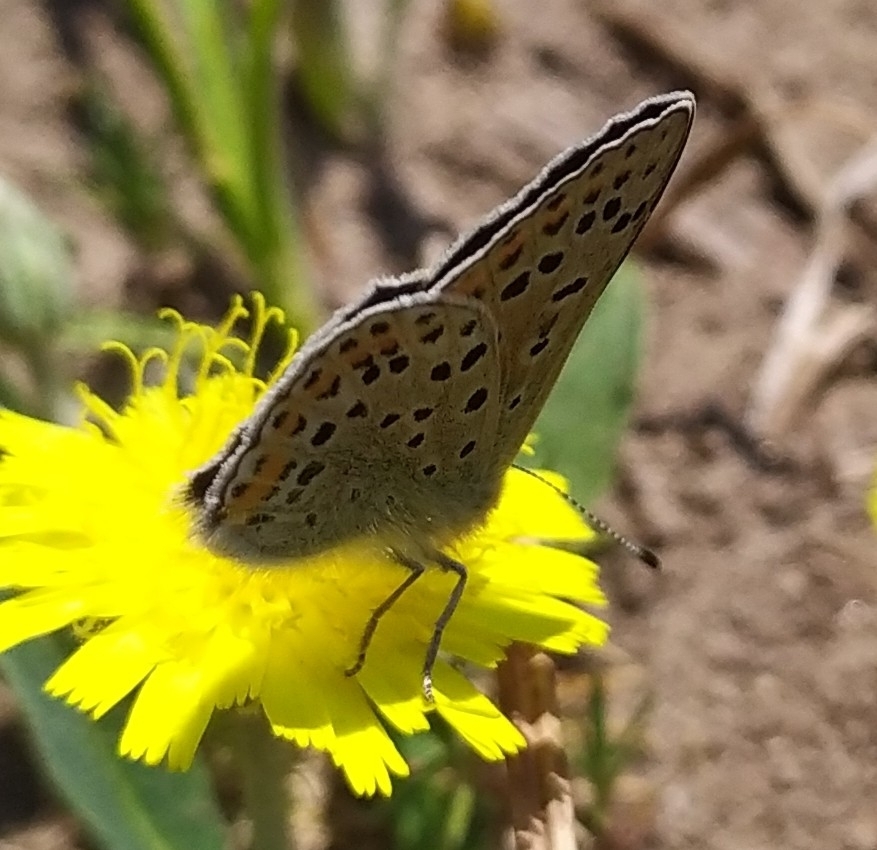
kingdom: Animalia
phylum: Arthropoda
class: Insecta
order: Lepidoptera
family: Lycaenidae
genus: Loweia
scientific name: Loweia tityrus
